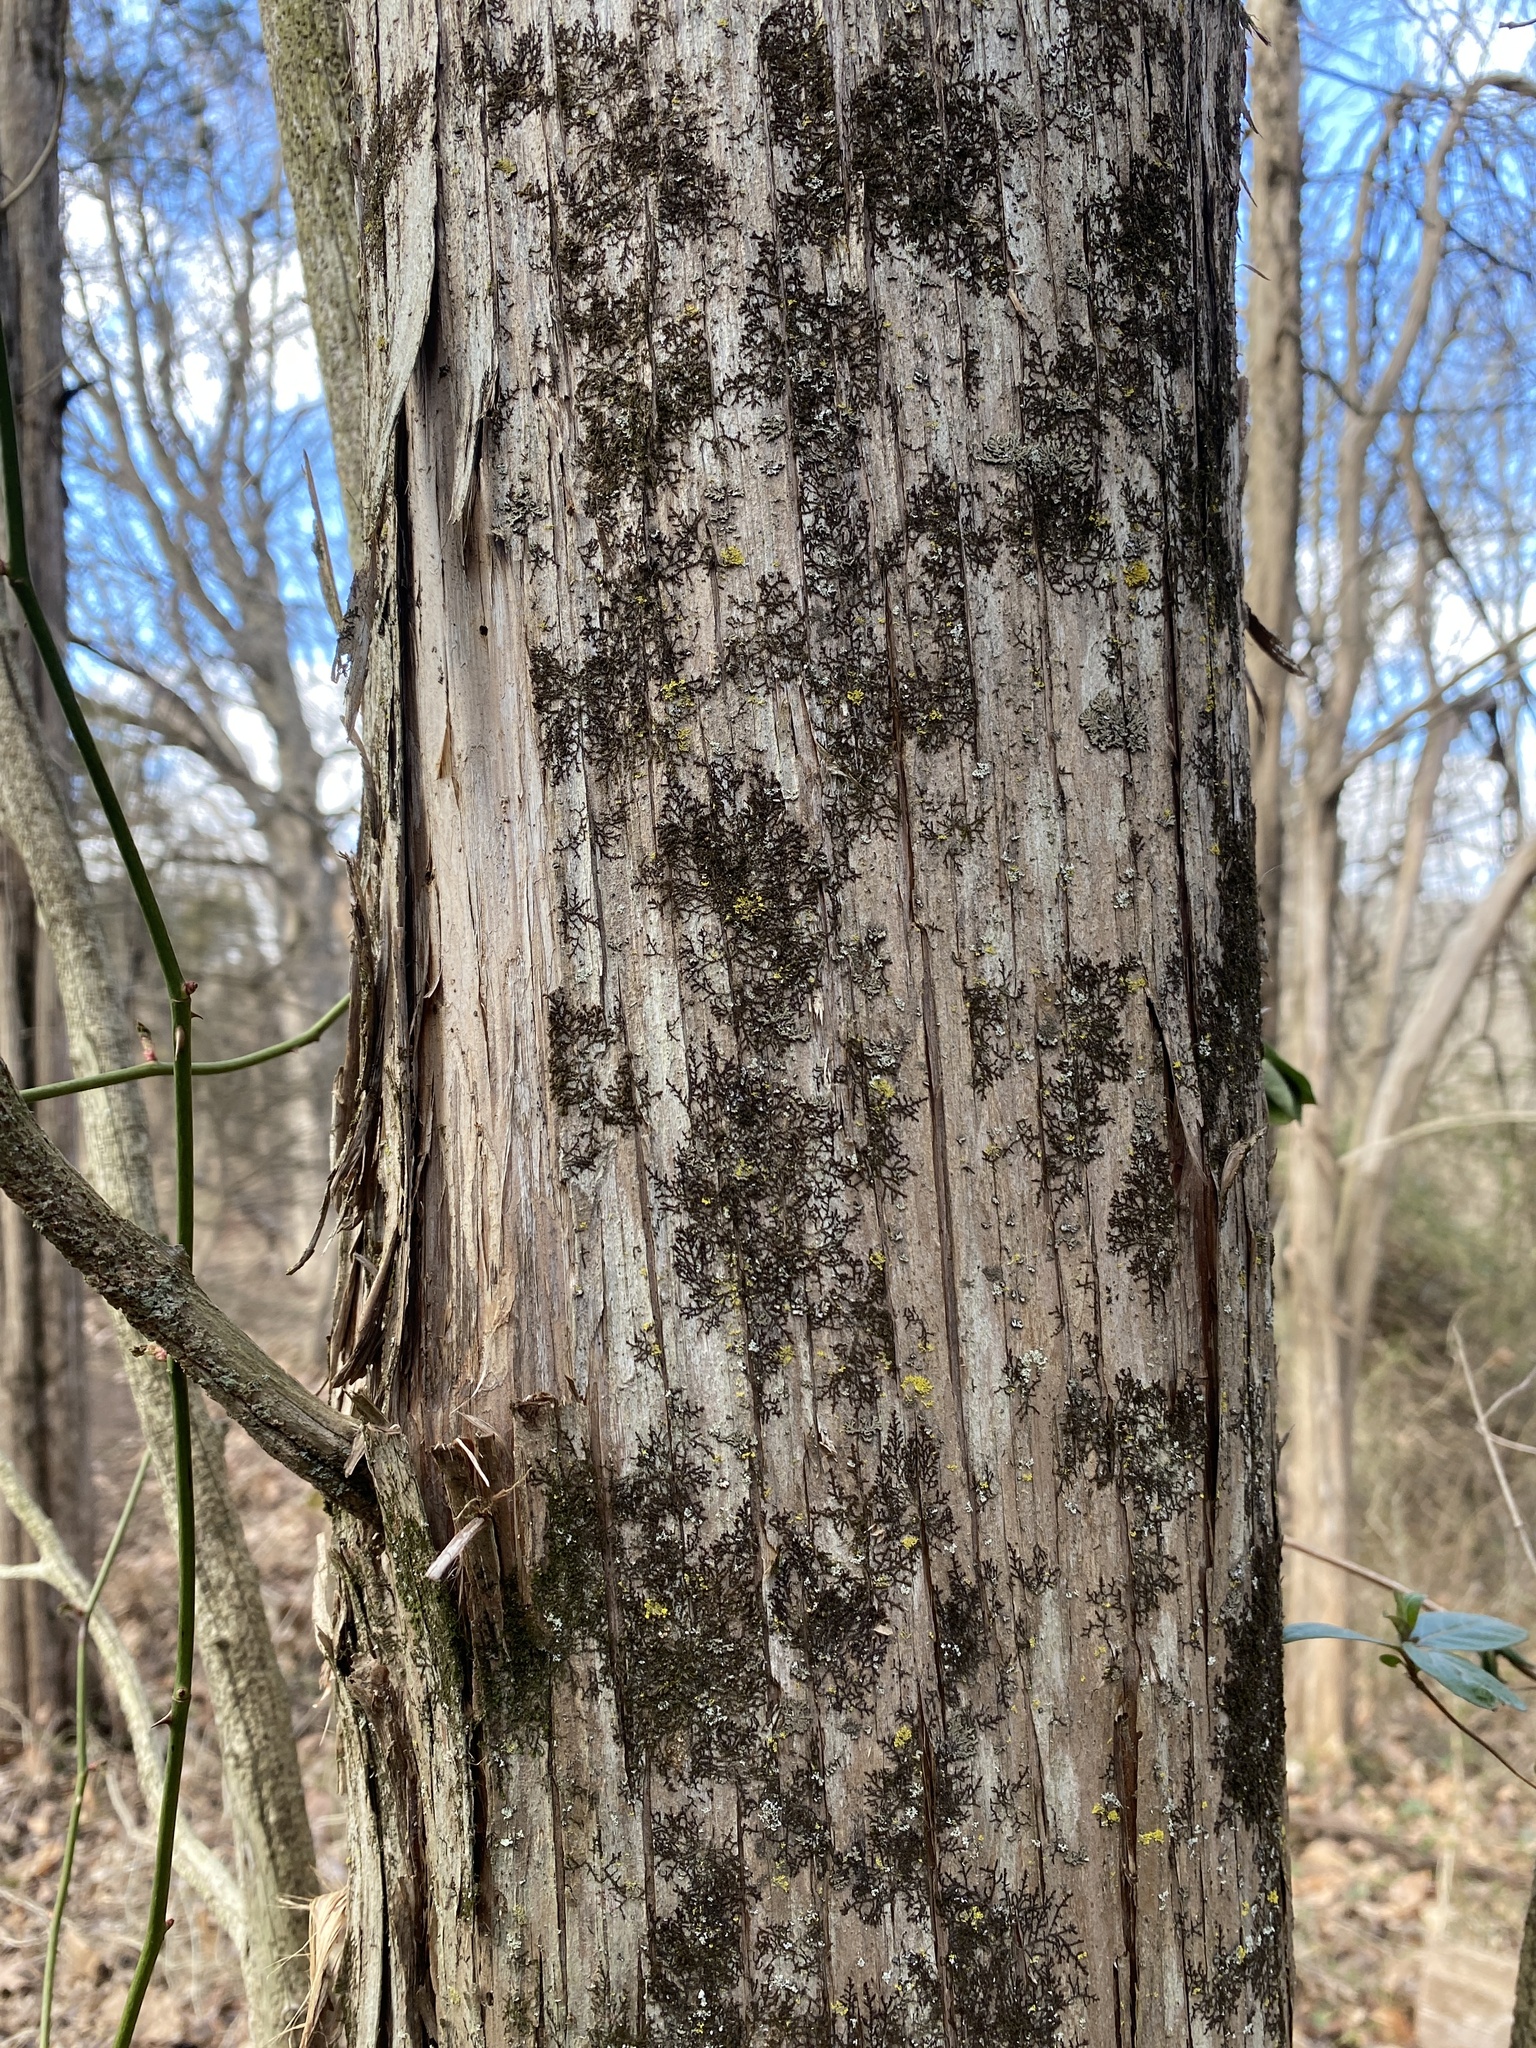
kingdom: Plantae
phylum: Marchantiophyta
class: Jungermanniopsida
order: Porellales
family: Frullaniaceae
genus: Frullania
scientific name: Frullania eboracensis
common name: New york scalewort
